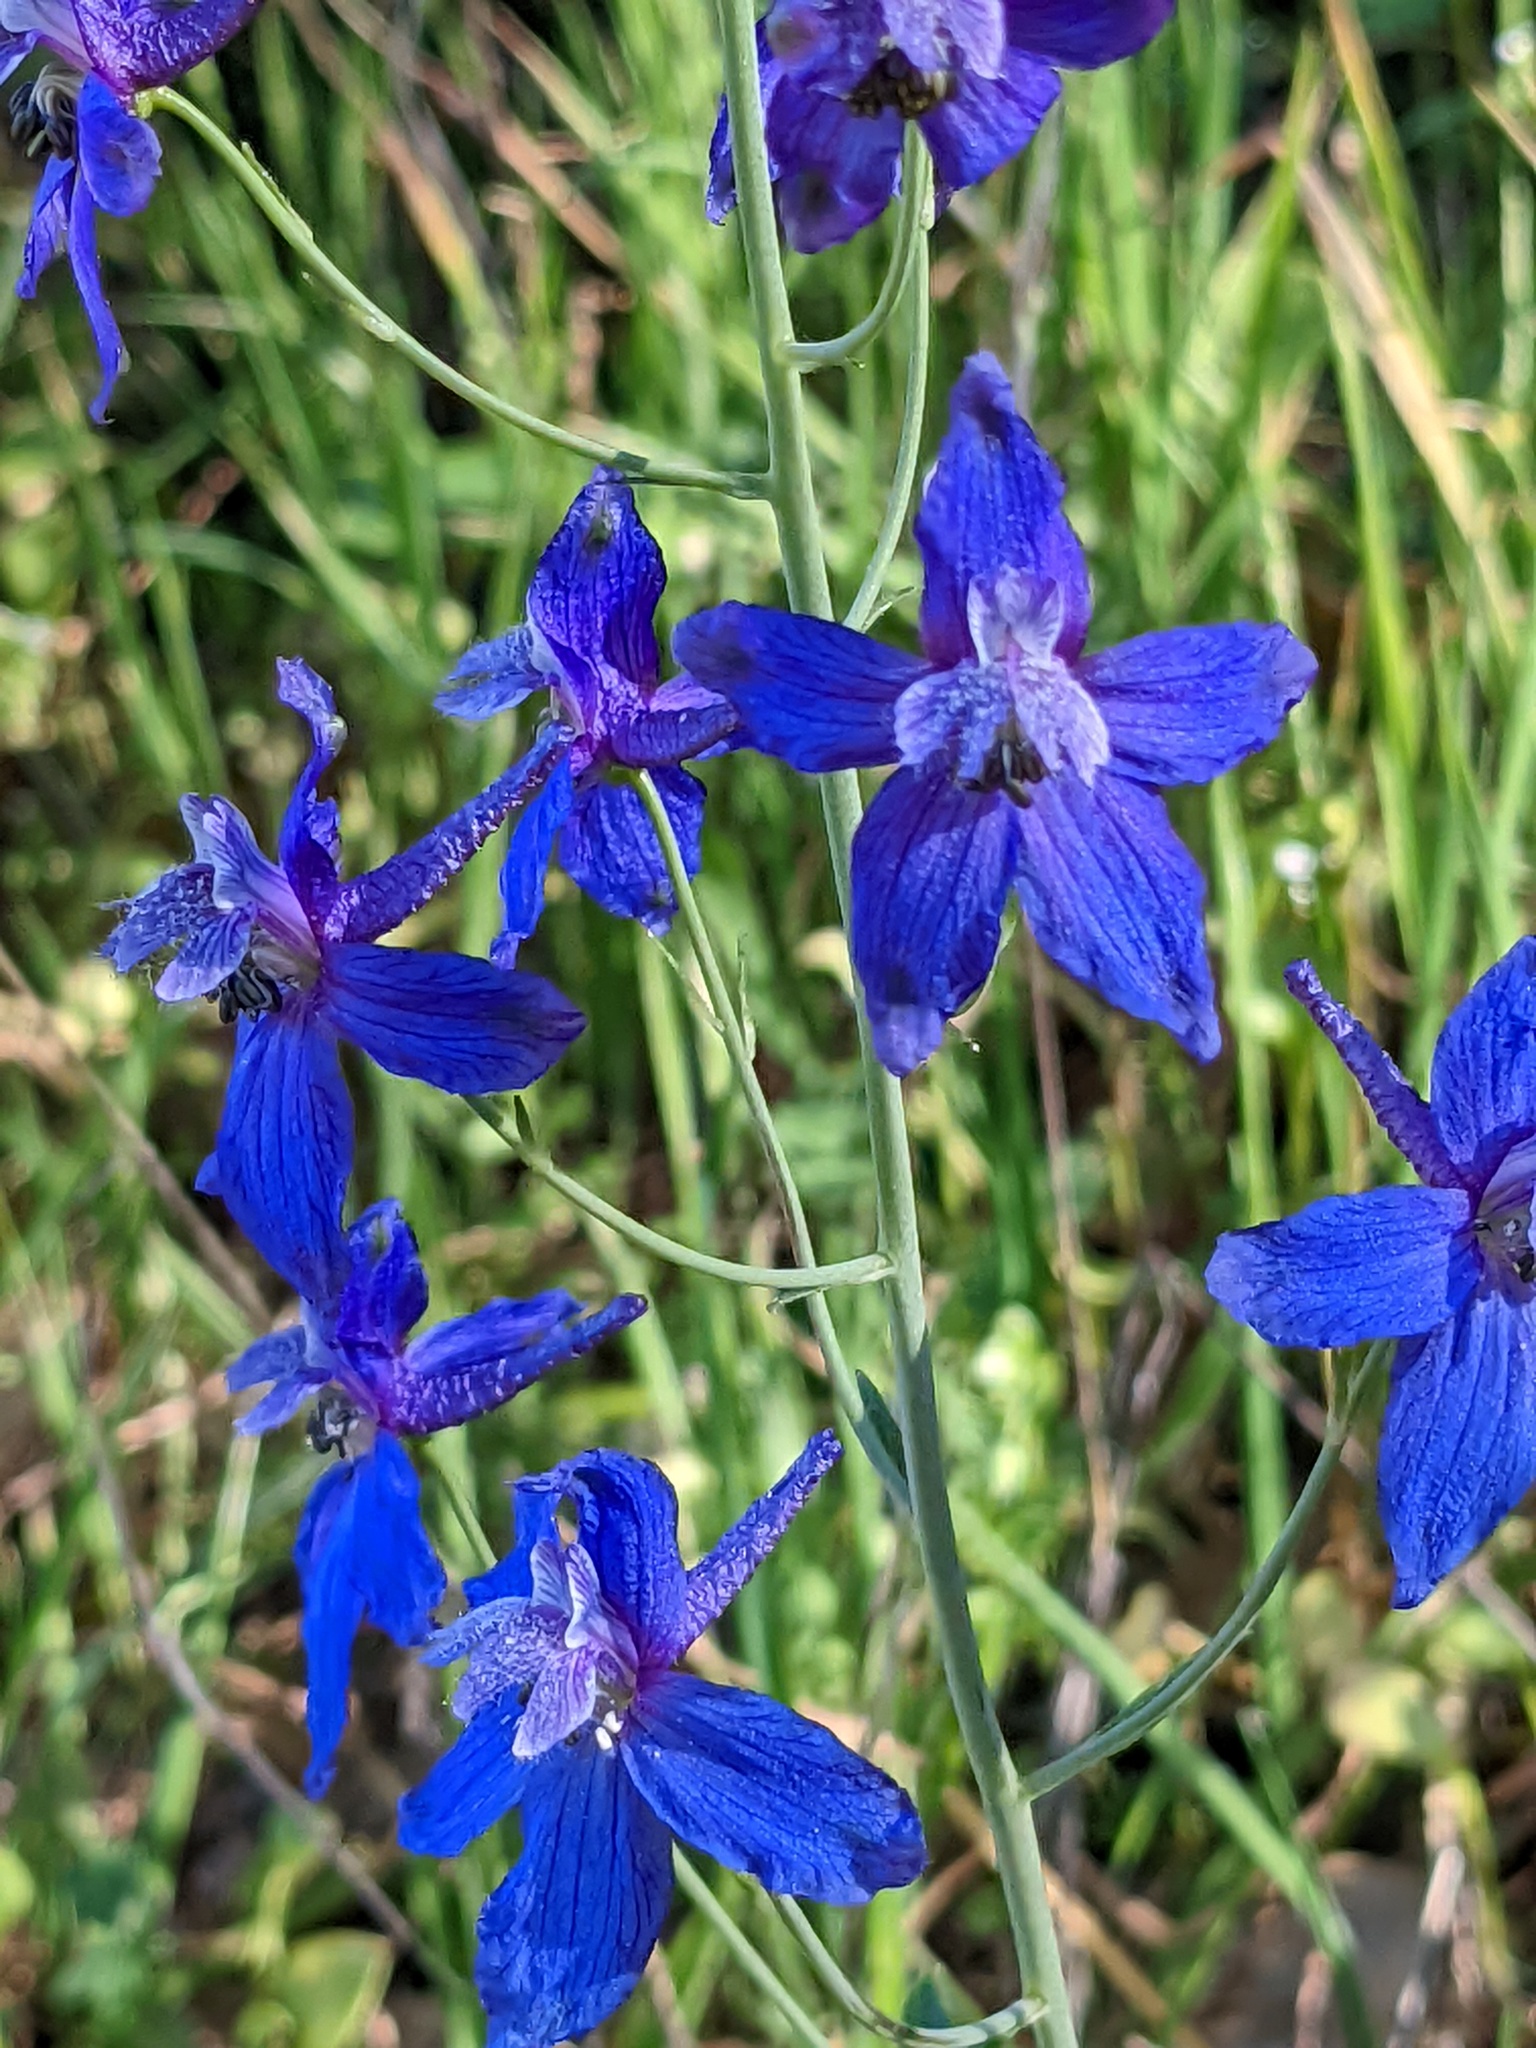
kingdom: Plantae
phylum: Tracheophyta
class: Magnoliopsida
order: Ranunculales
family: Ranunculaceae
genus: Delphinium
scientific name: Delphinium patens
